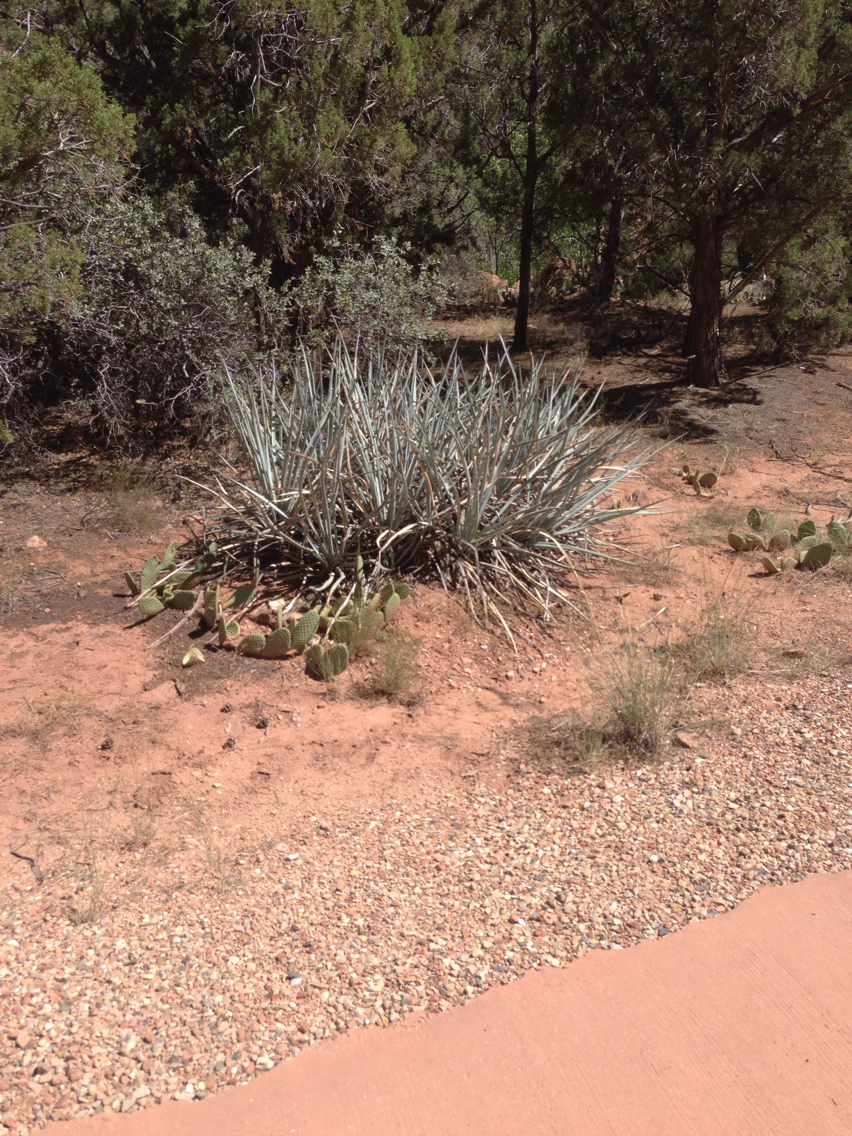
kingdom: Plantae
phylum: Tracheophyta
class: Liliopsida
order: Asparagales
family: Asparagaceae
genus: Yucca
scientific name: Yucca baccata
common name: Banana yucca
